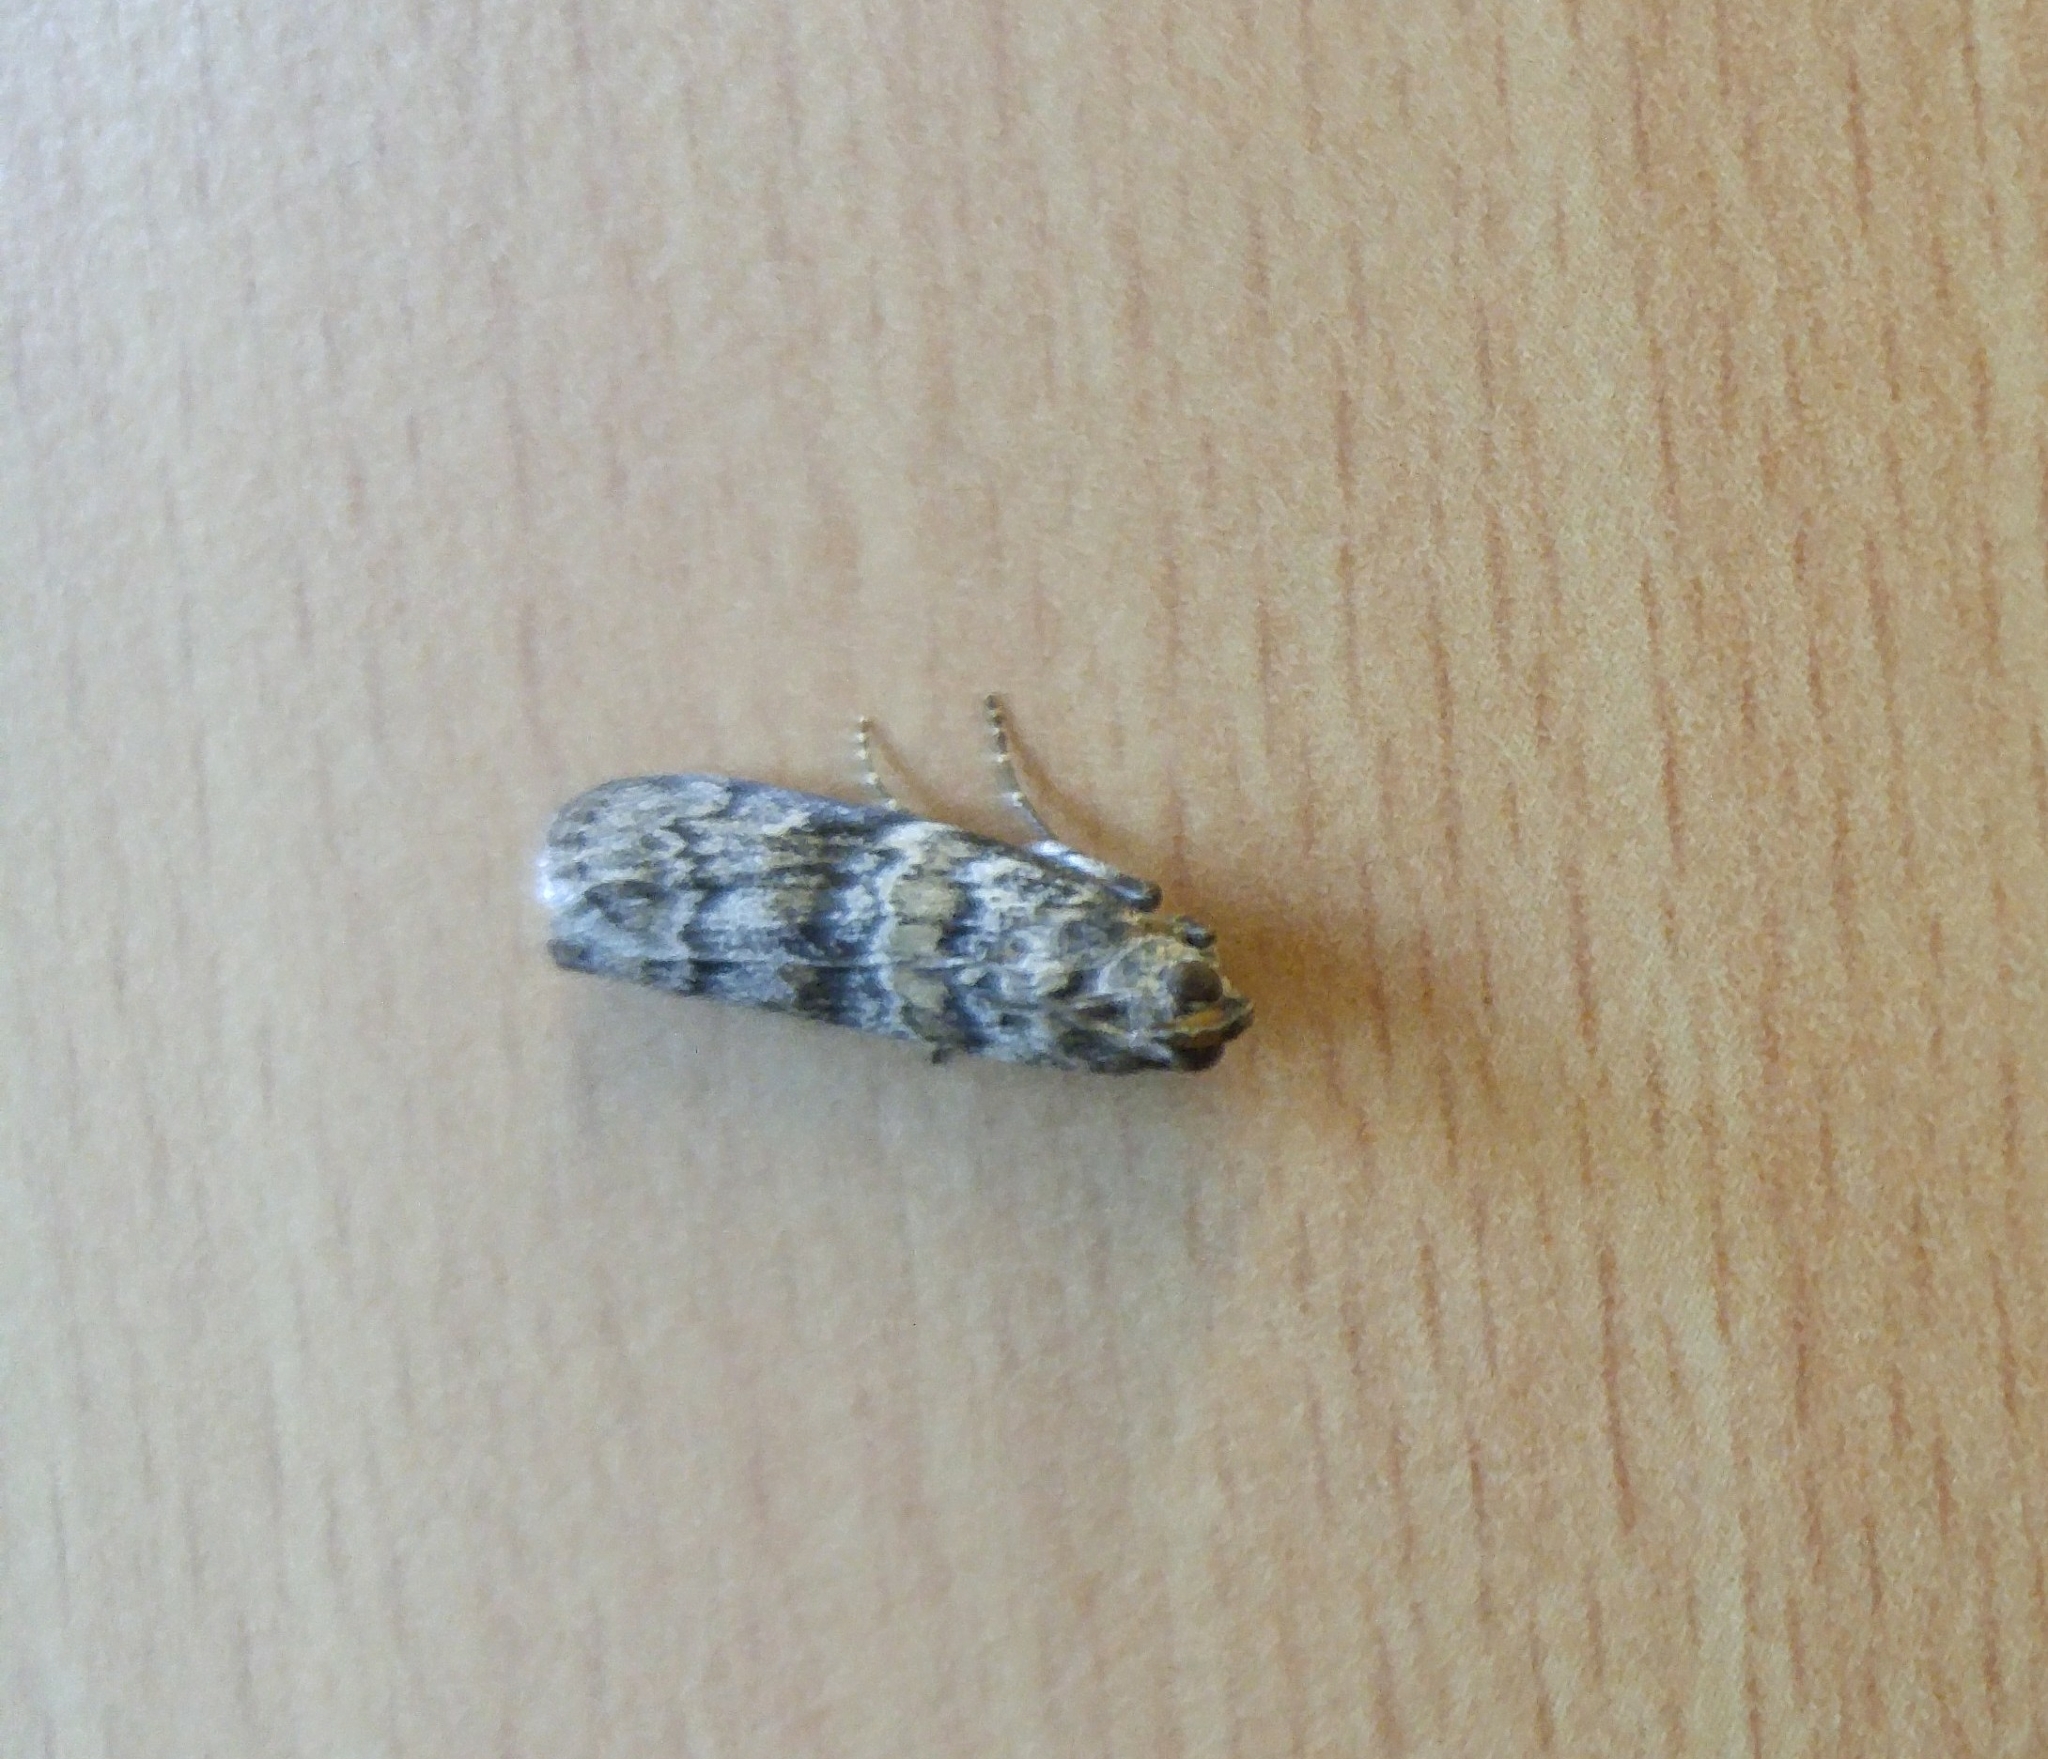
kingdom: Animalia
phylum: Arthropoda
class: Insecta
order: Lepidoptera
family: Pyralidae
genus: Dioryctria
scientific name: Dioryctria abietella
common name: Dark pine knot-horn
